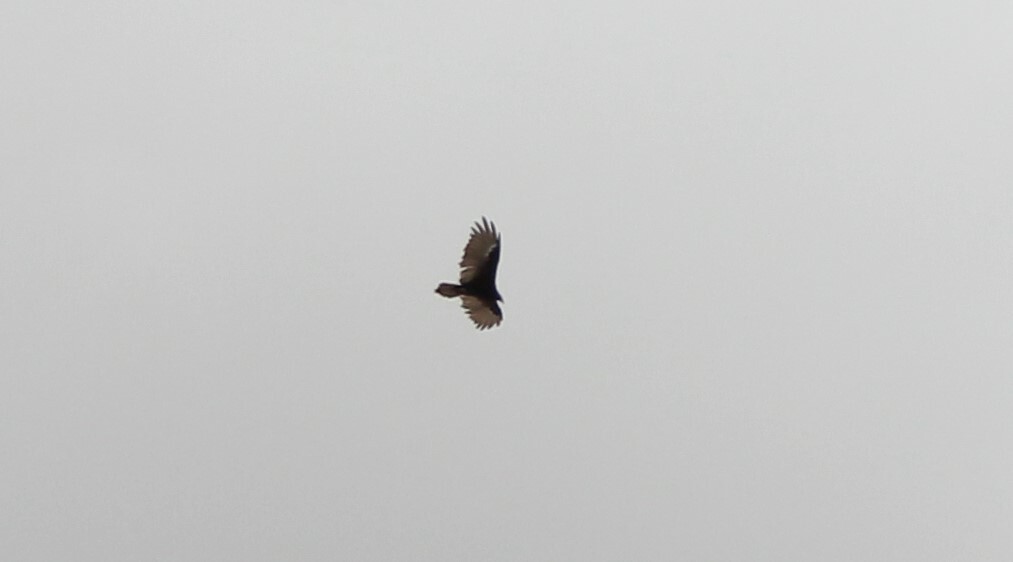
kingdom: Animalia
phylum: Chordata
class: Aves
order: Accipitriformes
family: Cathartidae
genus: Cathartes
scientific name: Cathartes aura
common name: Turkey vulture
